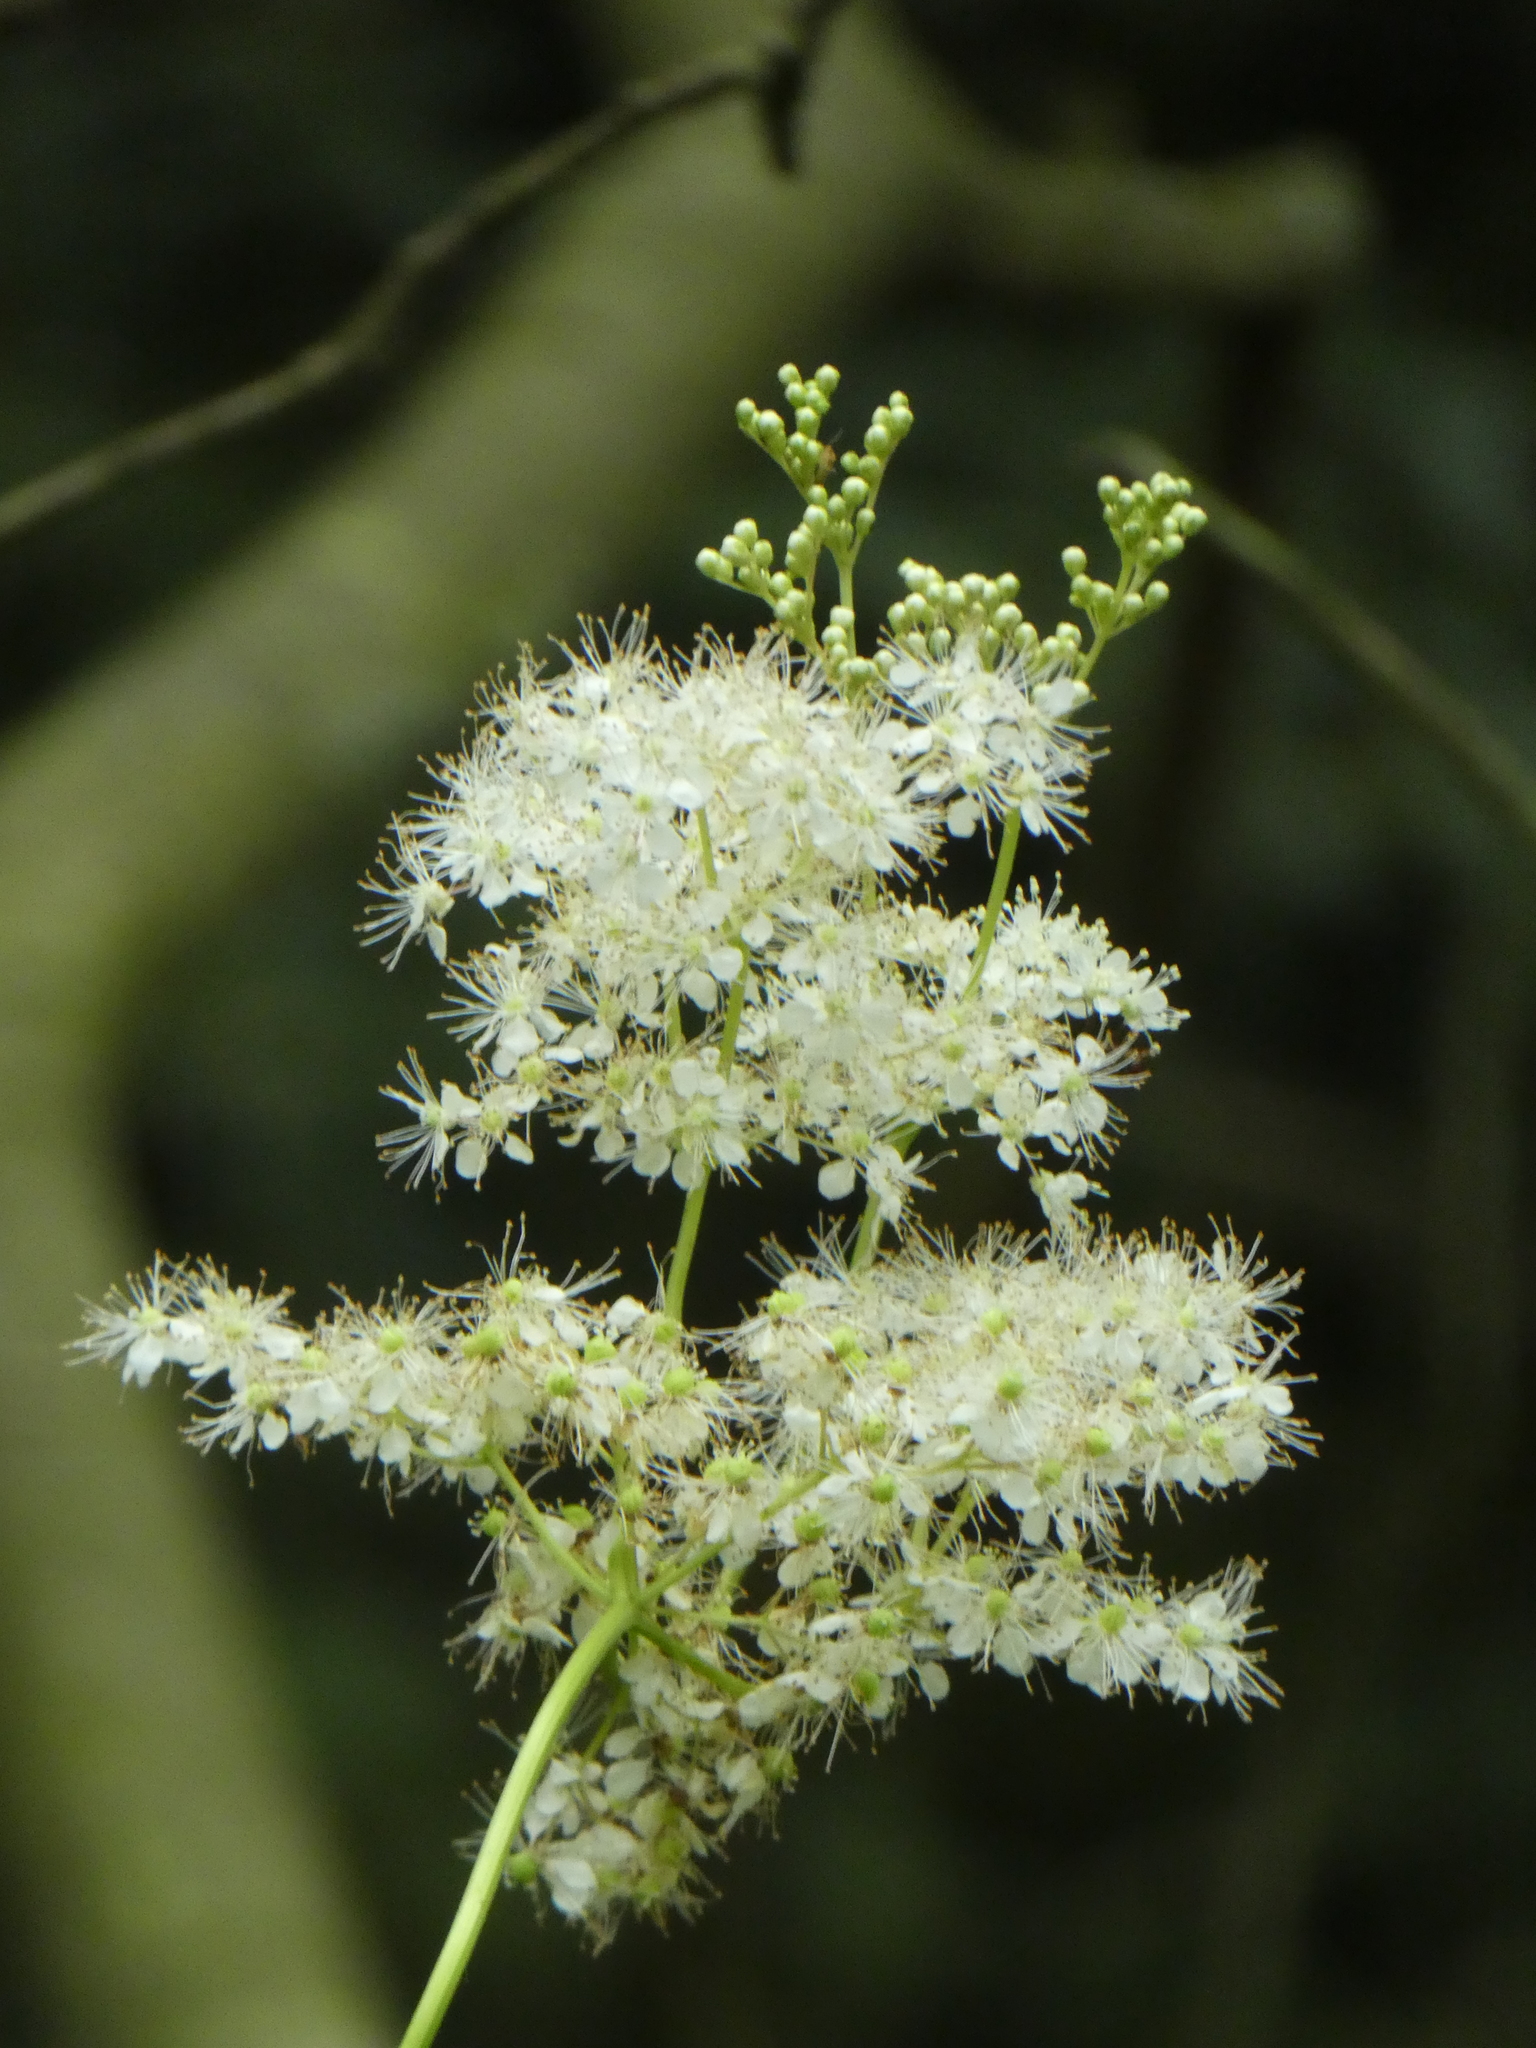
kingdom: Plantae
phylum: Tracheophyta
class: Magnoliopsida
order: Rosales
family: Rosaceae
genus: Filipendula
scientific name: Filipendula ulmaria
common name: Meadowsweet
